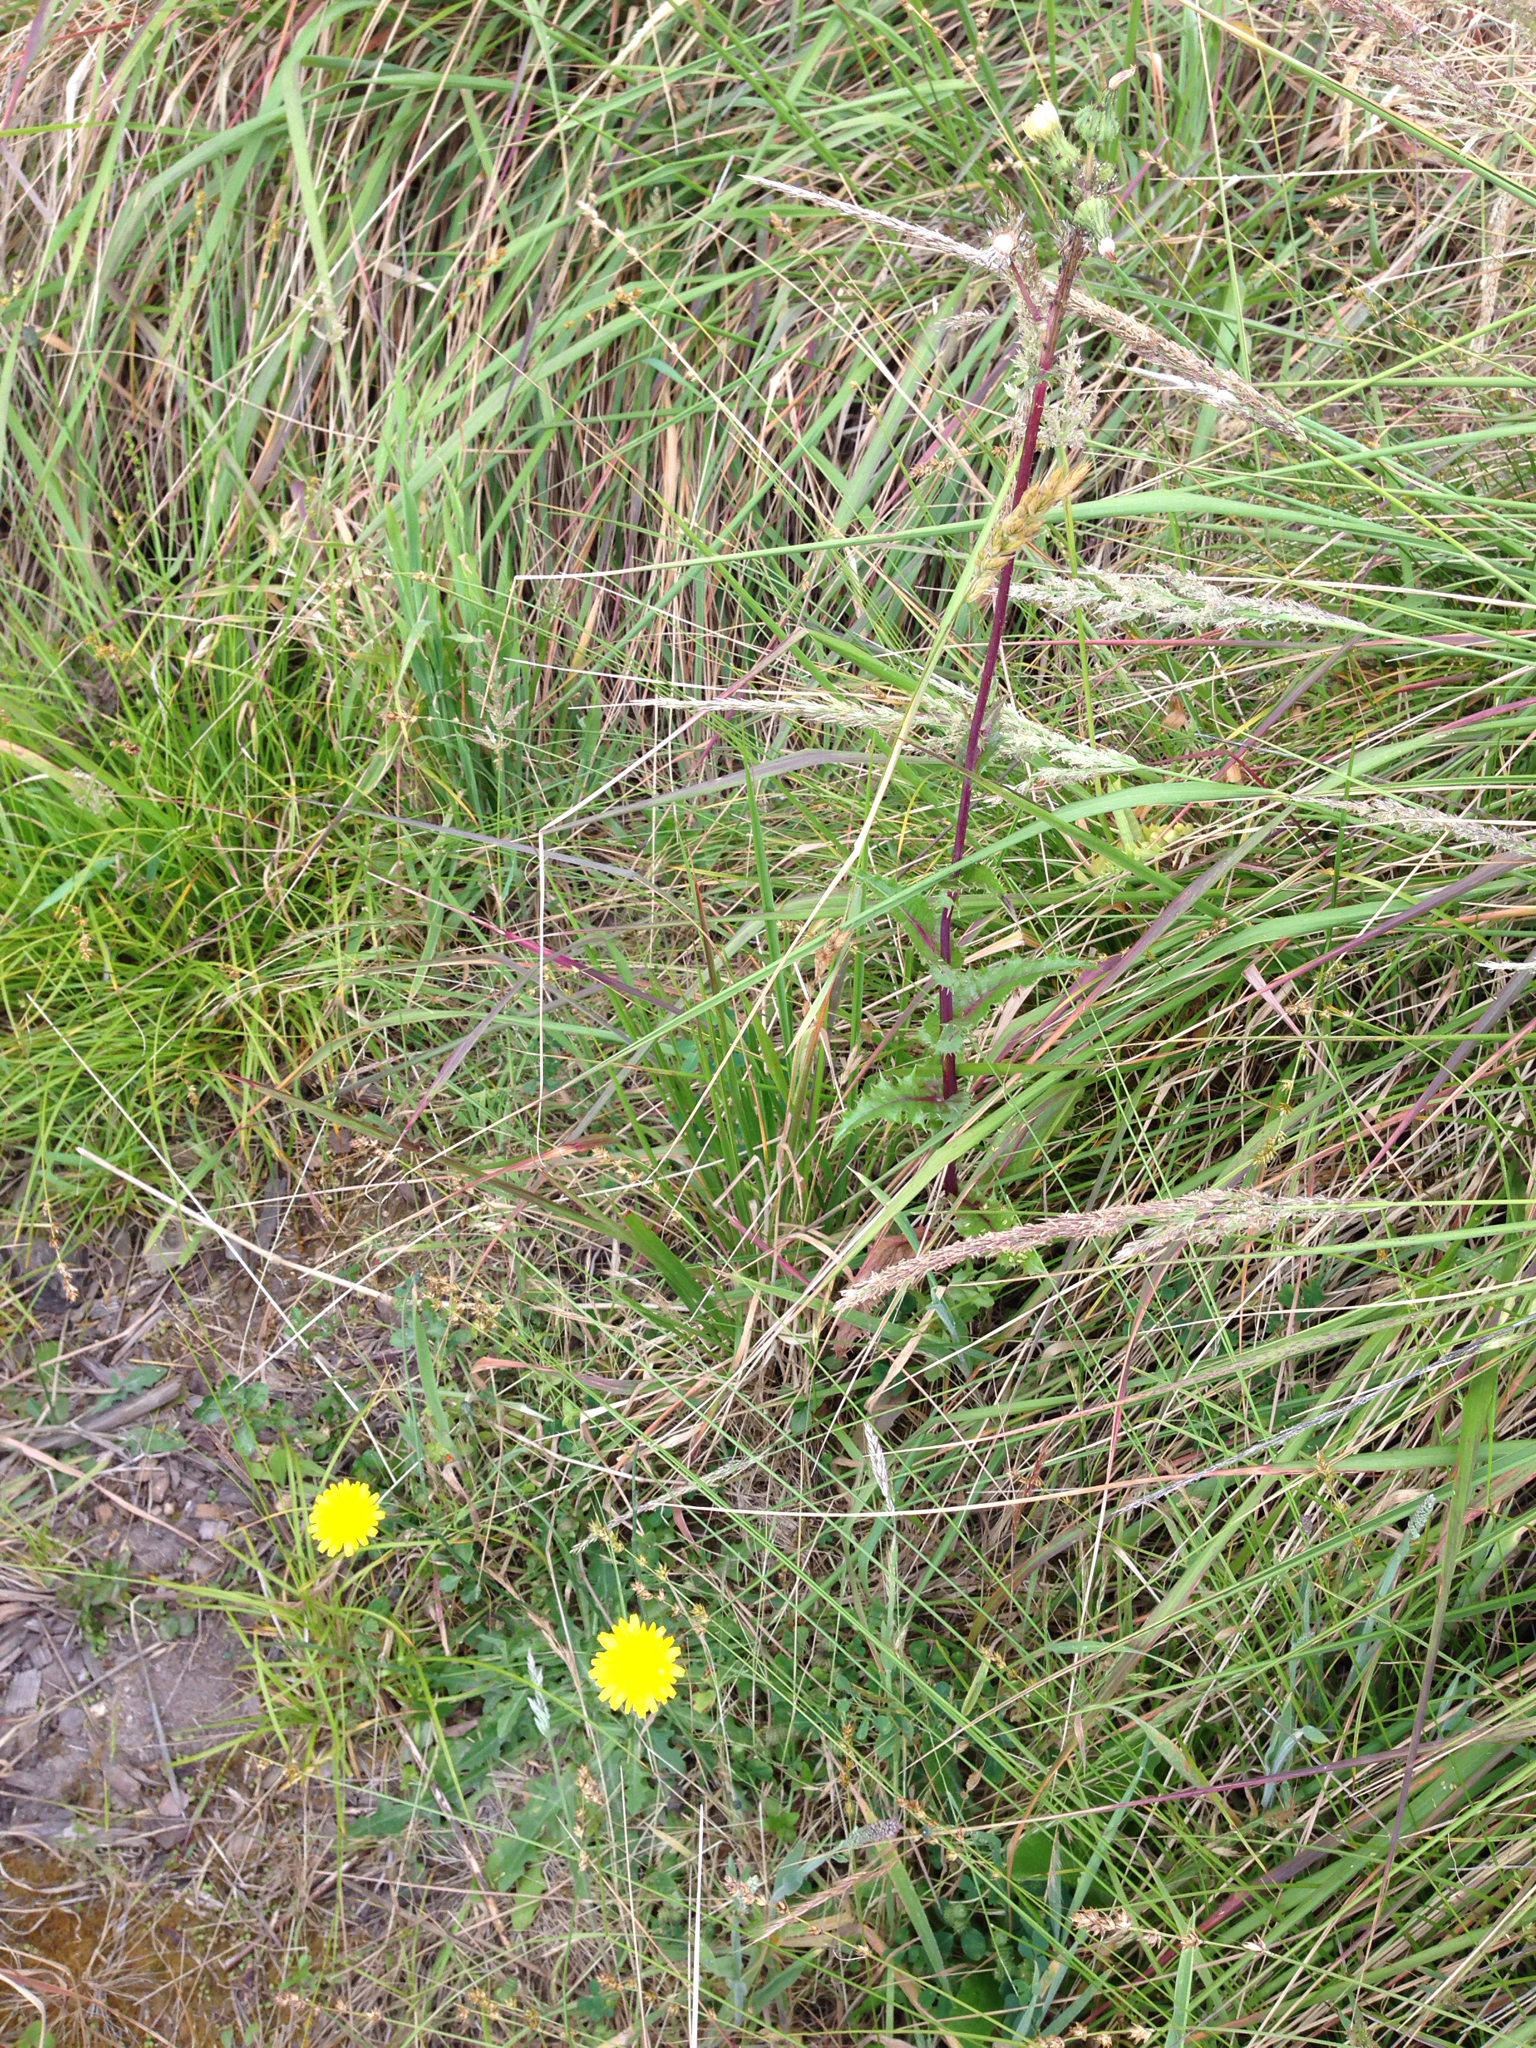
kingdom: Plantae
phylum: Tracheophyta
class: Magnoliopsida
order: Asterales
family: Asteraceae
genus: Taraxacum
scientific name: Taraxacum officinale
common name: Common dandelion
